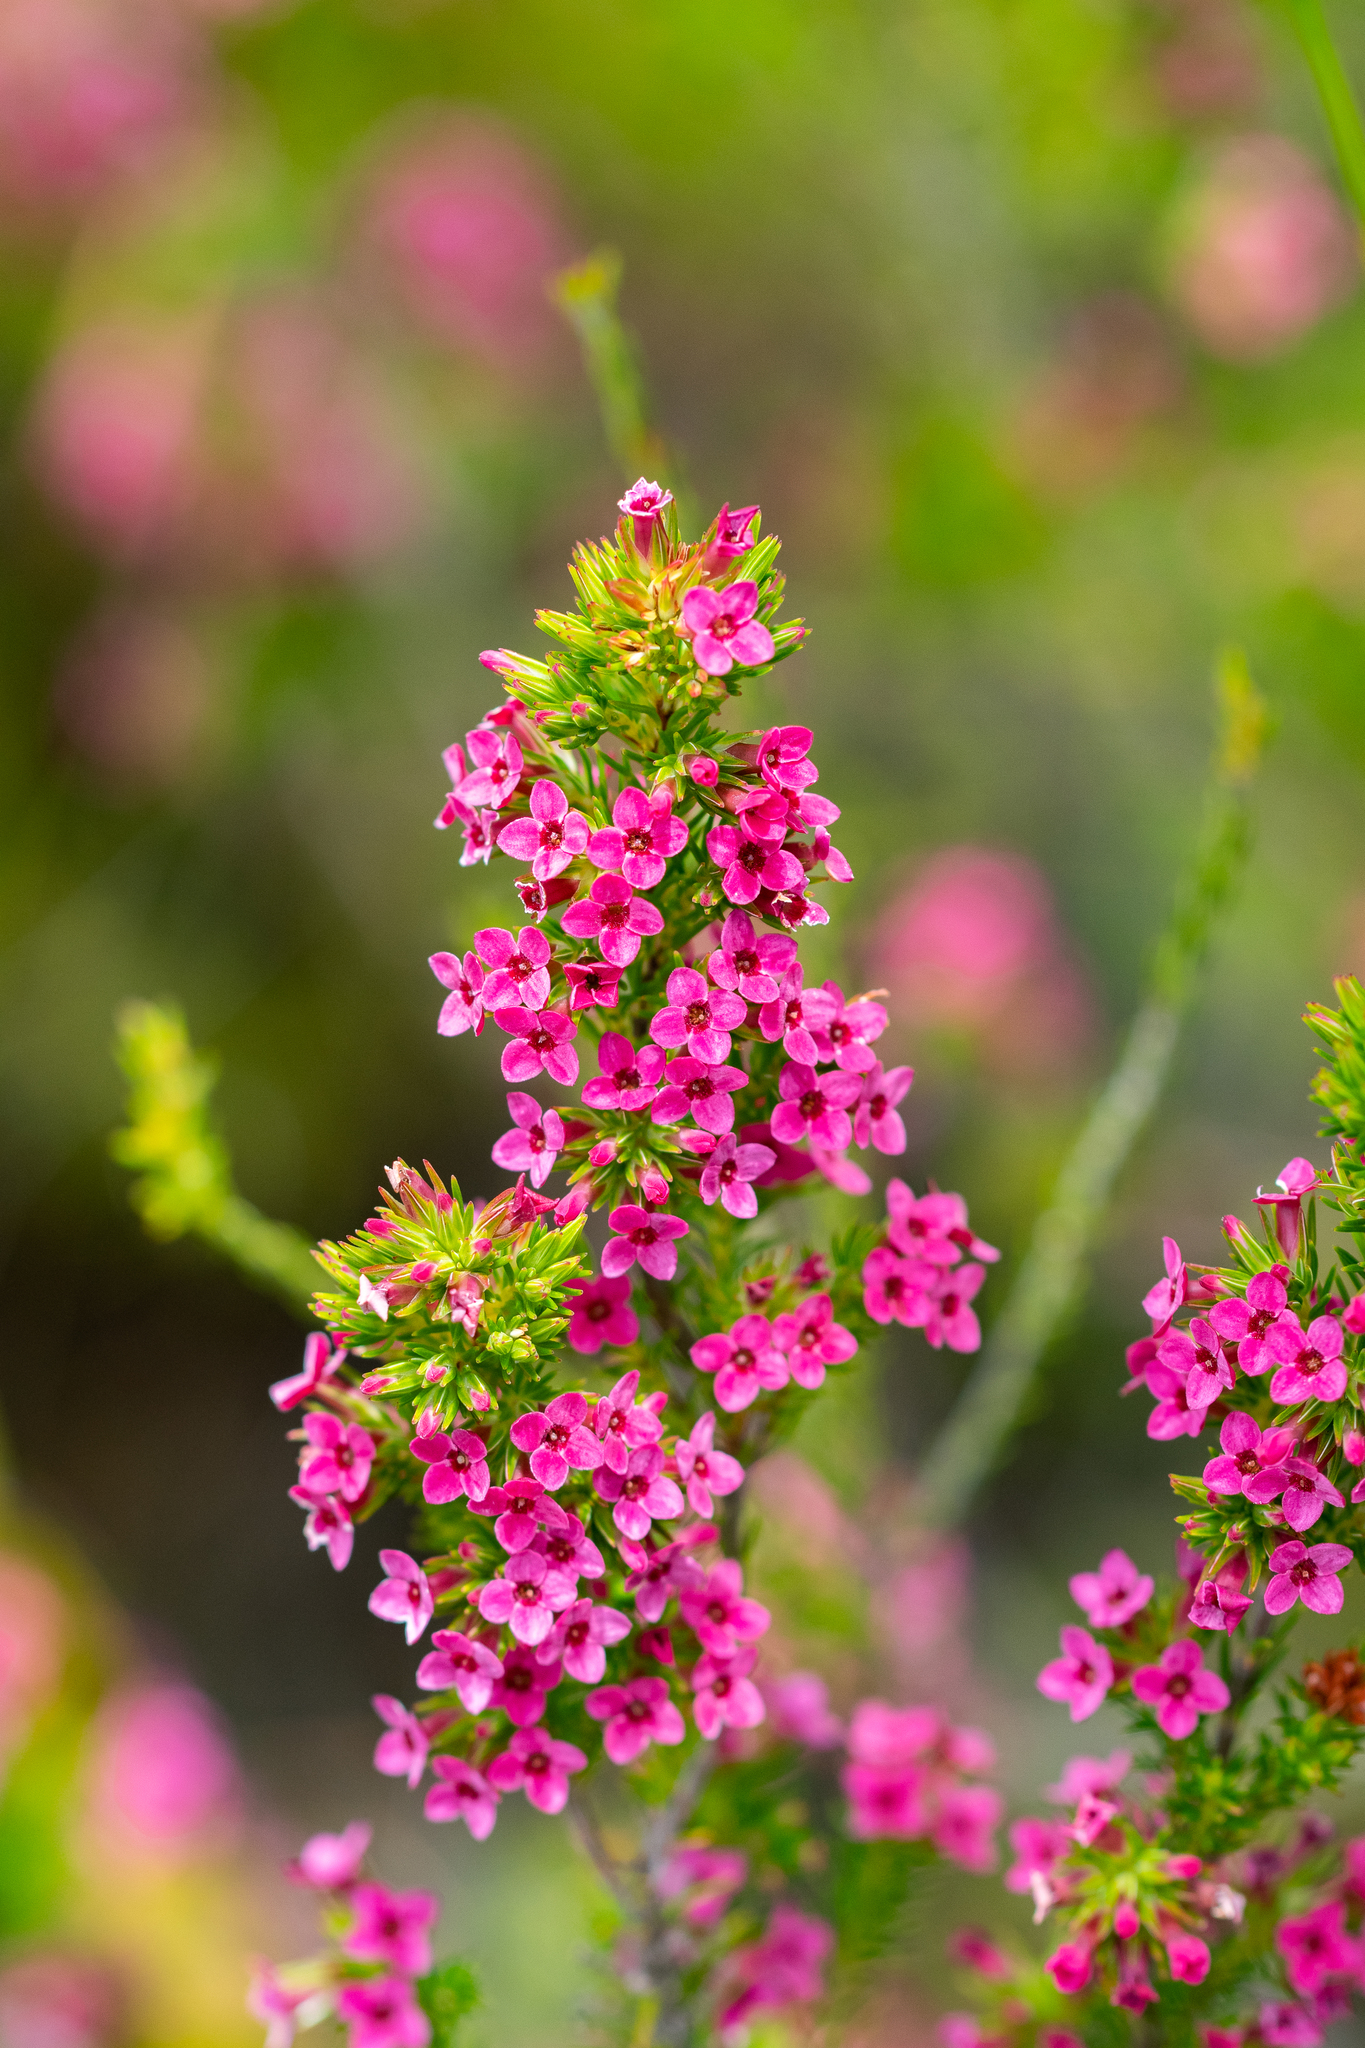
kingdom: Plantae
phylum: Tracheophyta
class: Magnoliopsida
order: Ericales
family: Ericaceae
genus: Erica
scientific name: Erica
